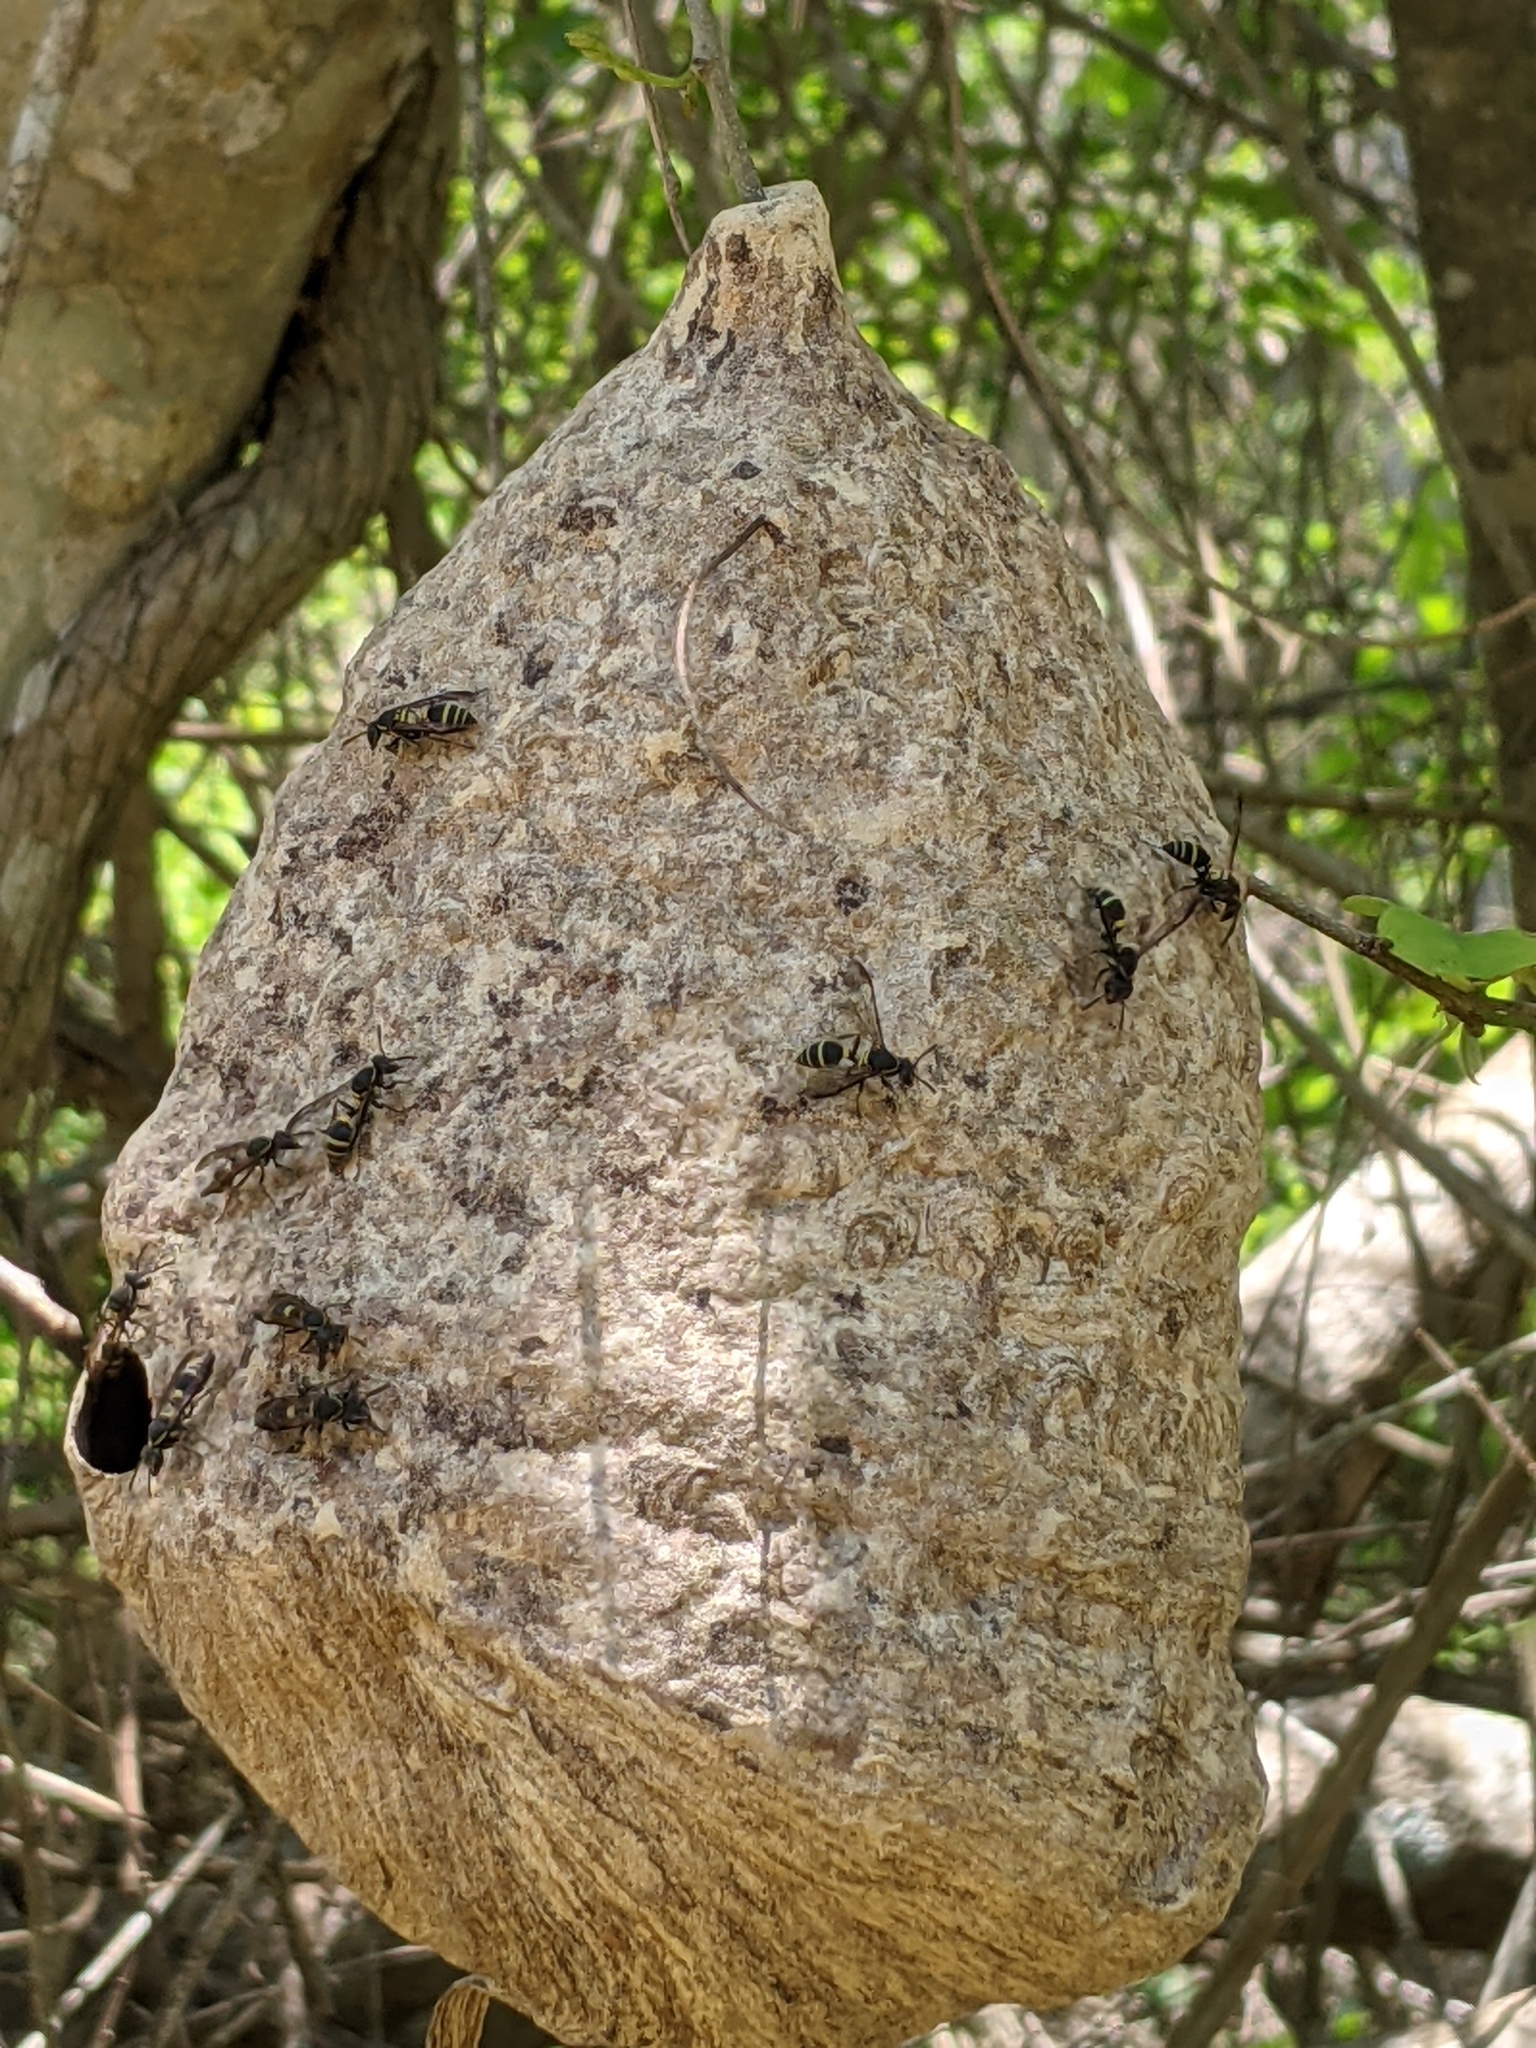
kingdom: Animalia
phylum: Arthropoda
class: Insecta
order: Hymenoptera
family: Eumenidae
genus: Polybia
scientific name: Polybia occidentalis
